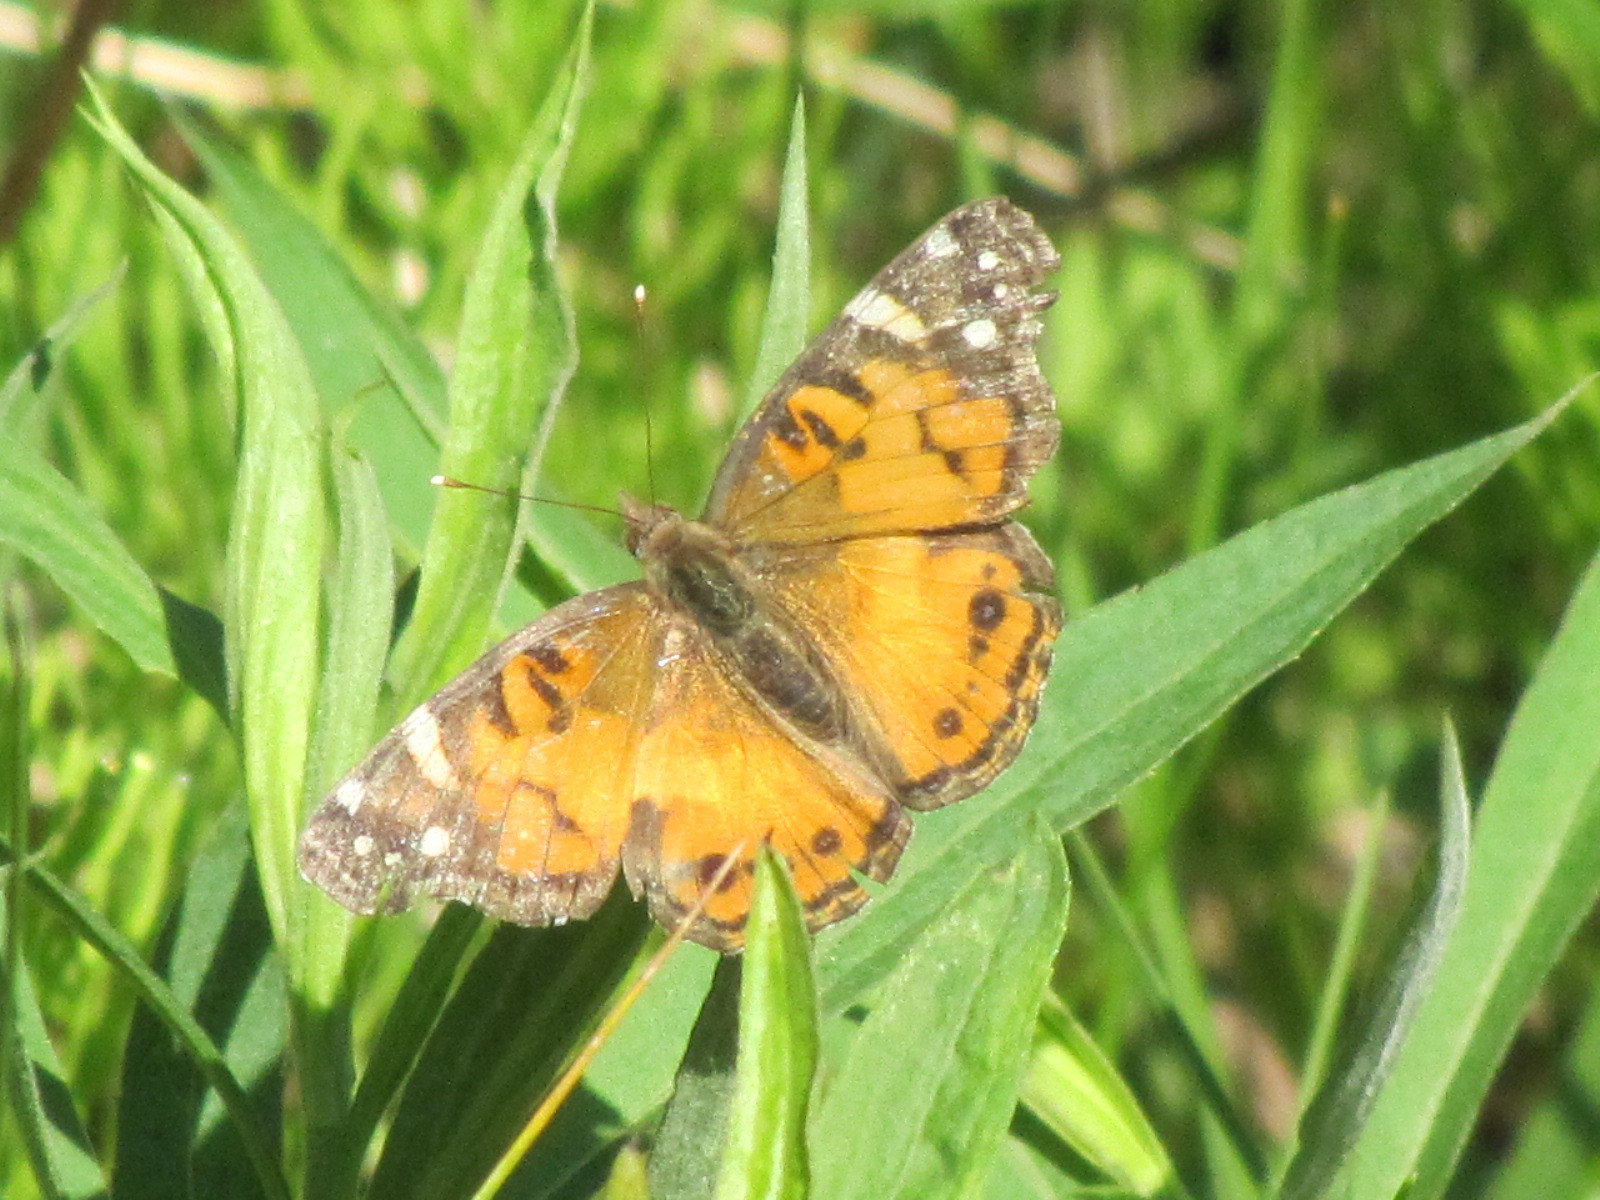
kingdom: Animalia
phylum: Arthropoda
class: Insecta
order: Lepidoptera
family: Nymphalidae
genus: Vanessa
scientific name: Vanessa virginiensis
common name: American lady
